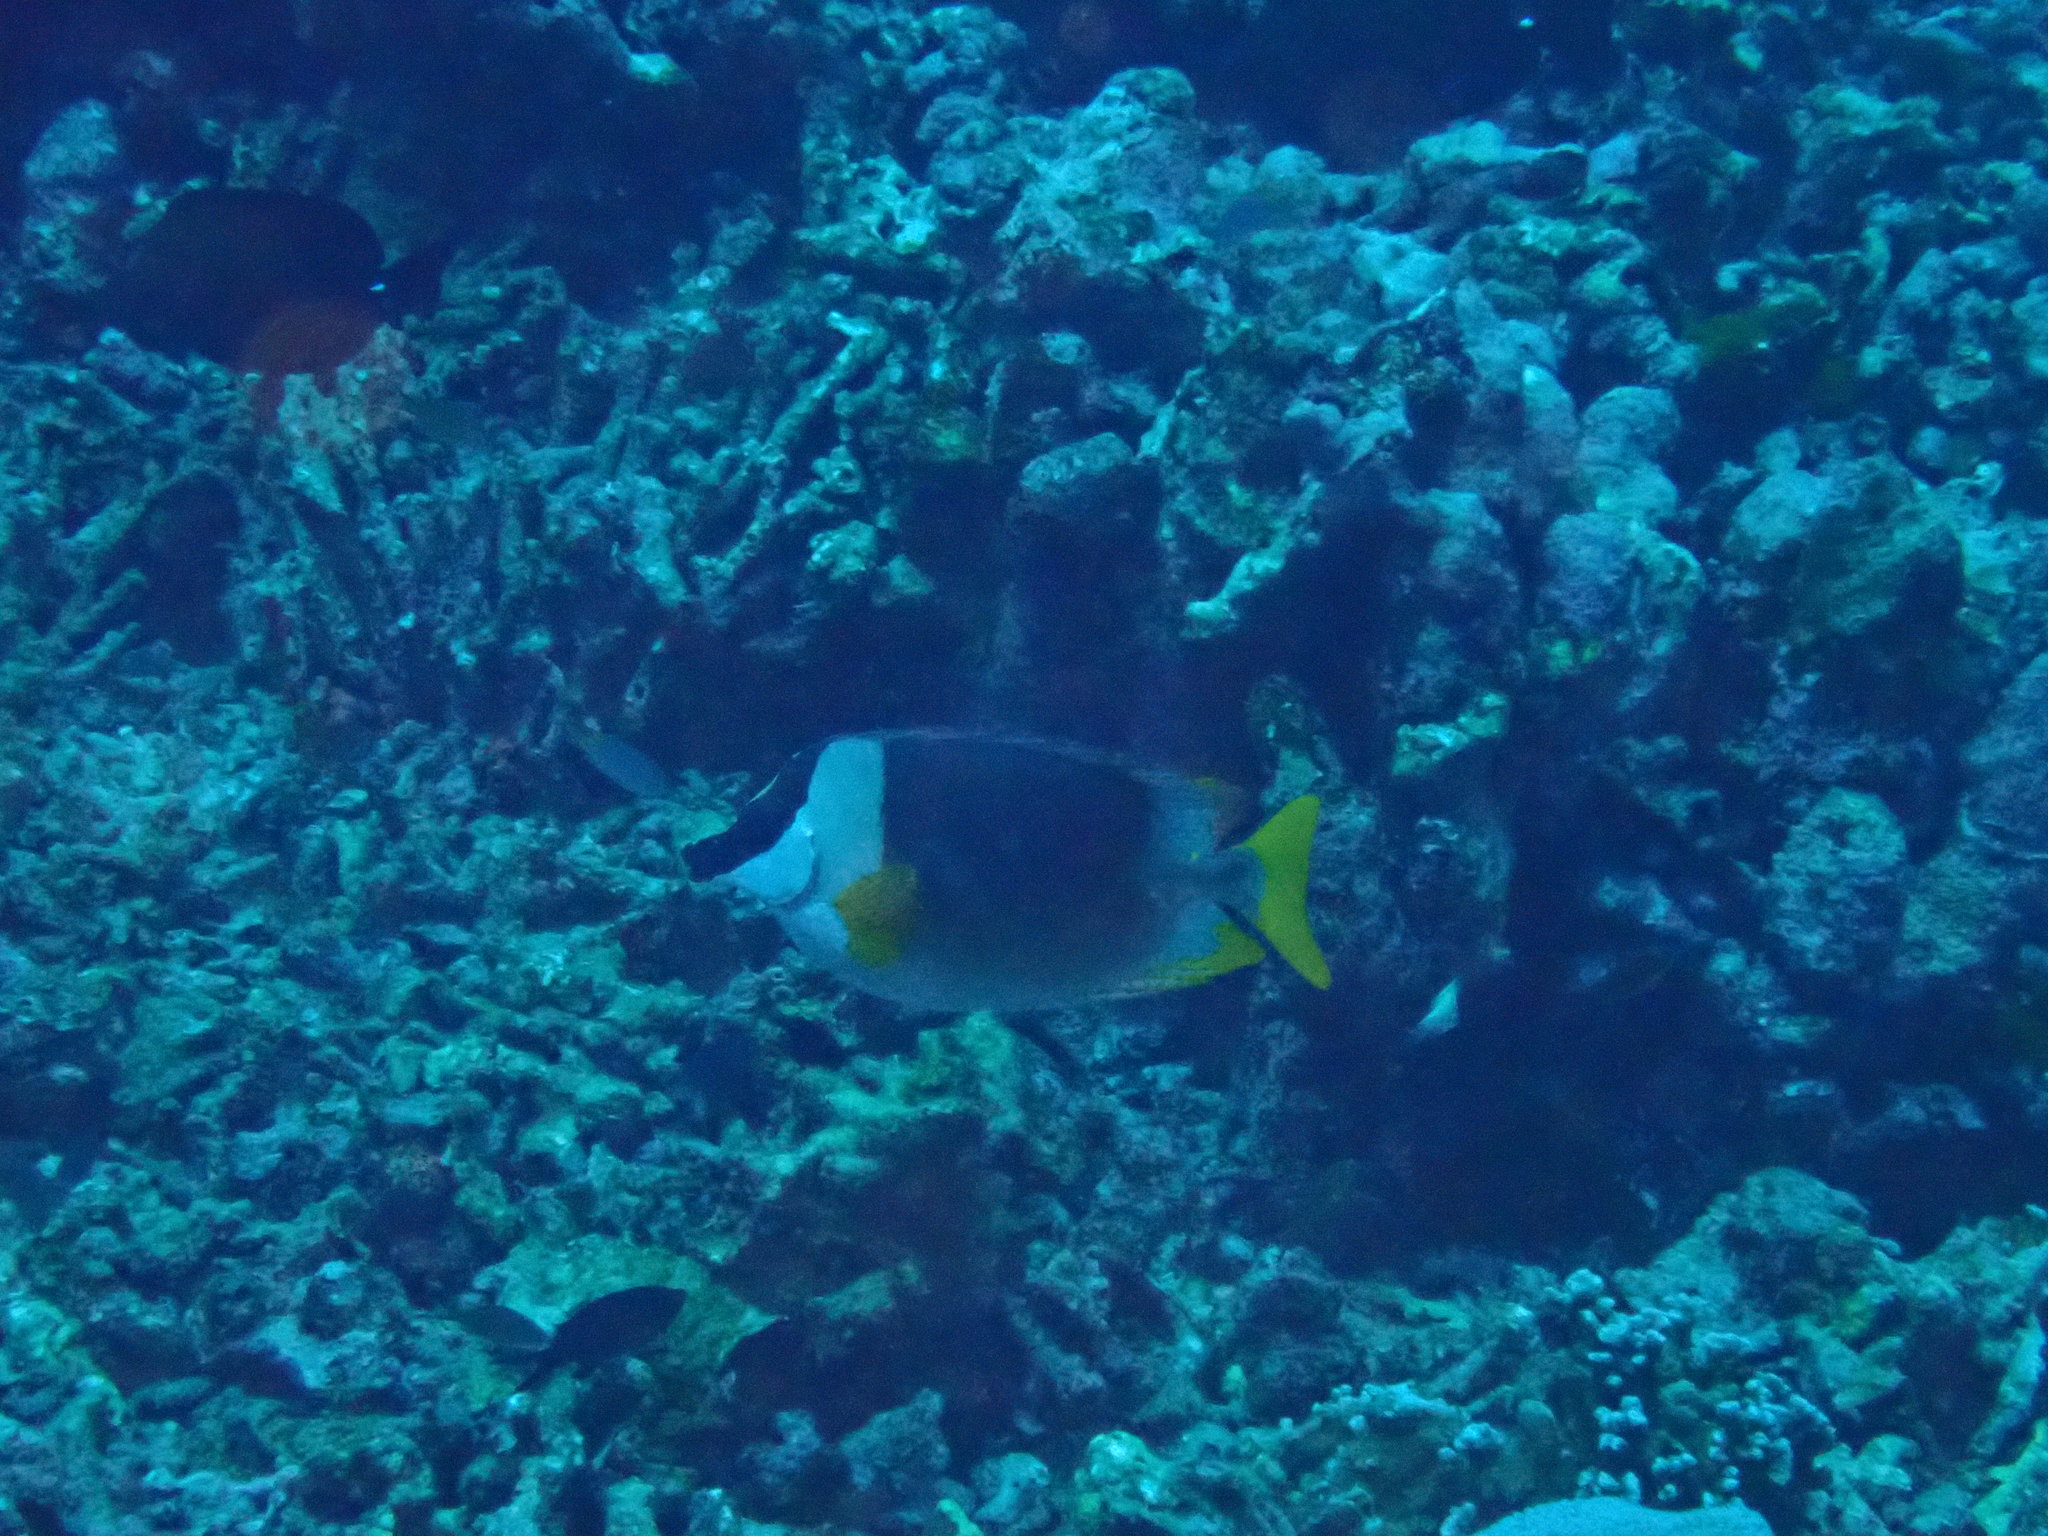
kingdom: Animalia
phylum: Chordata
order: Perciformes
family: Siganidae
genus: Siganus
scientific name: Siganus magnificus
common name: Magnificent rabbitfish
